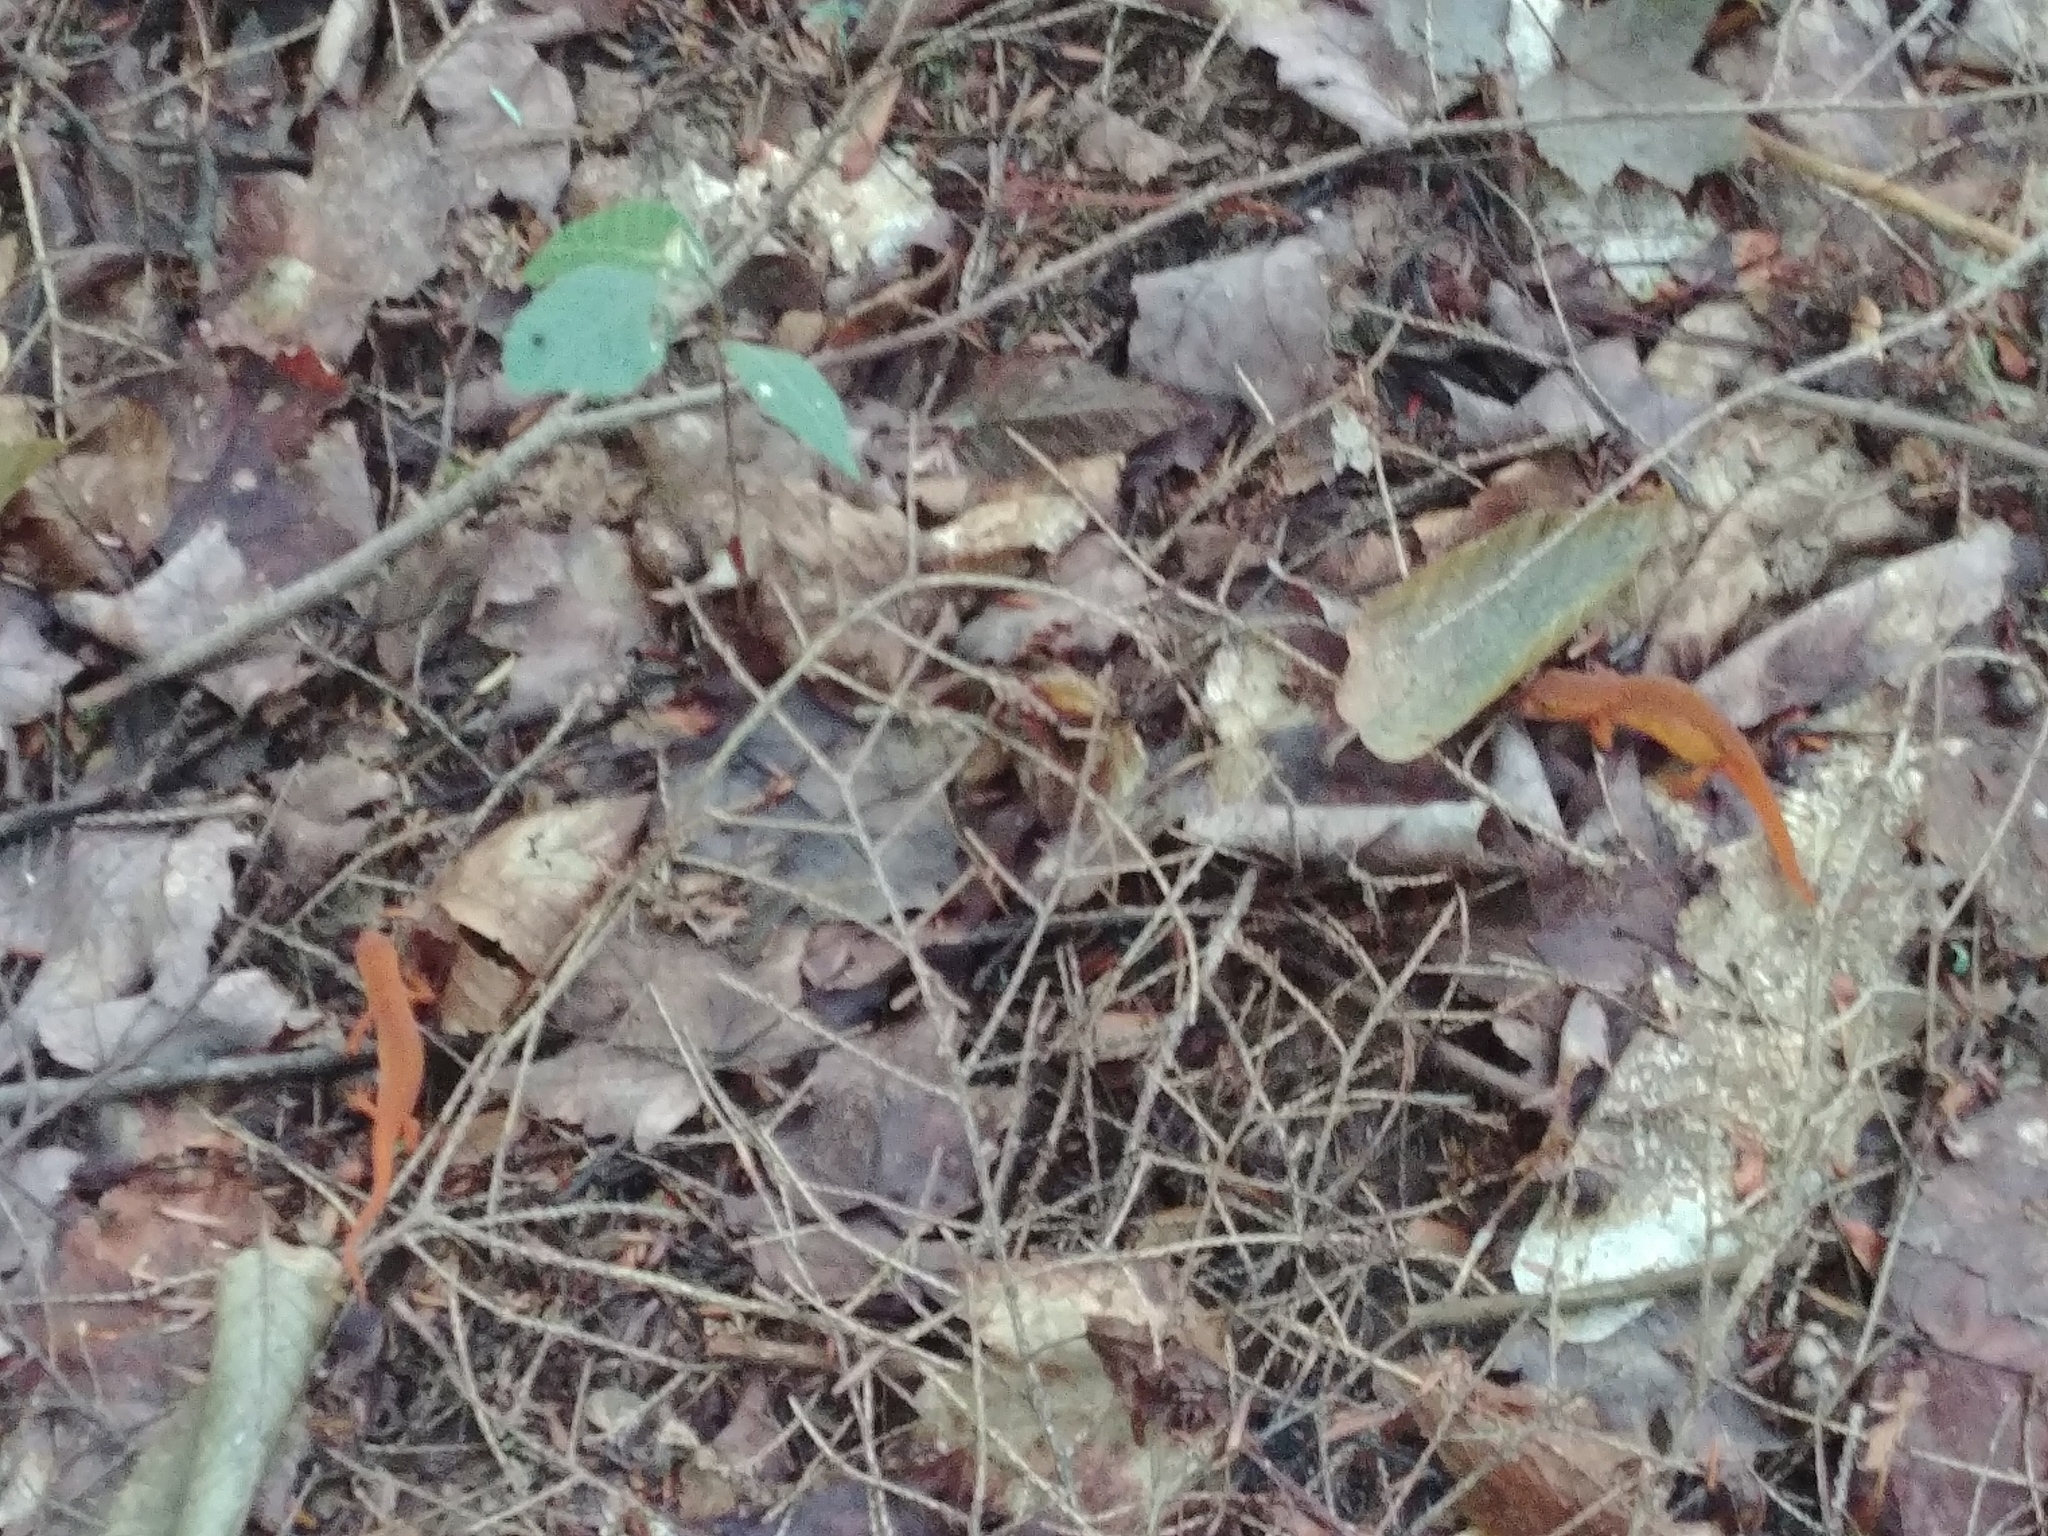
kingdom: Animalia
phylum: Chordata
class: Amphibia
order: Caudata
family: Salamandridae
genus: Notophthalmus
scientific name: Notophthalmus viridescens
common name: Eastern newt
